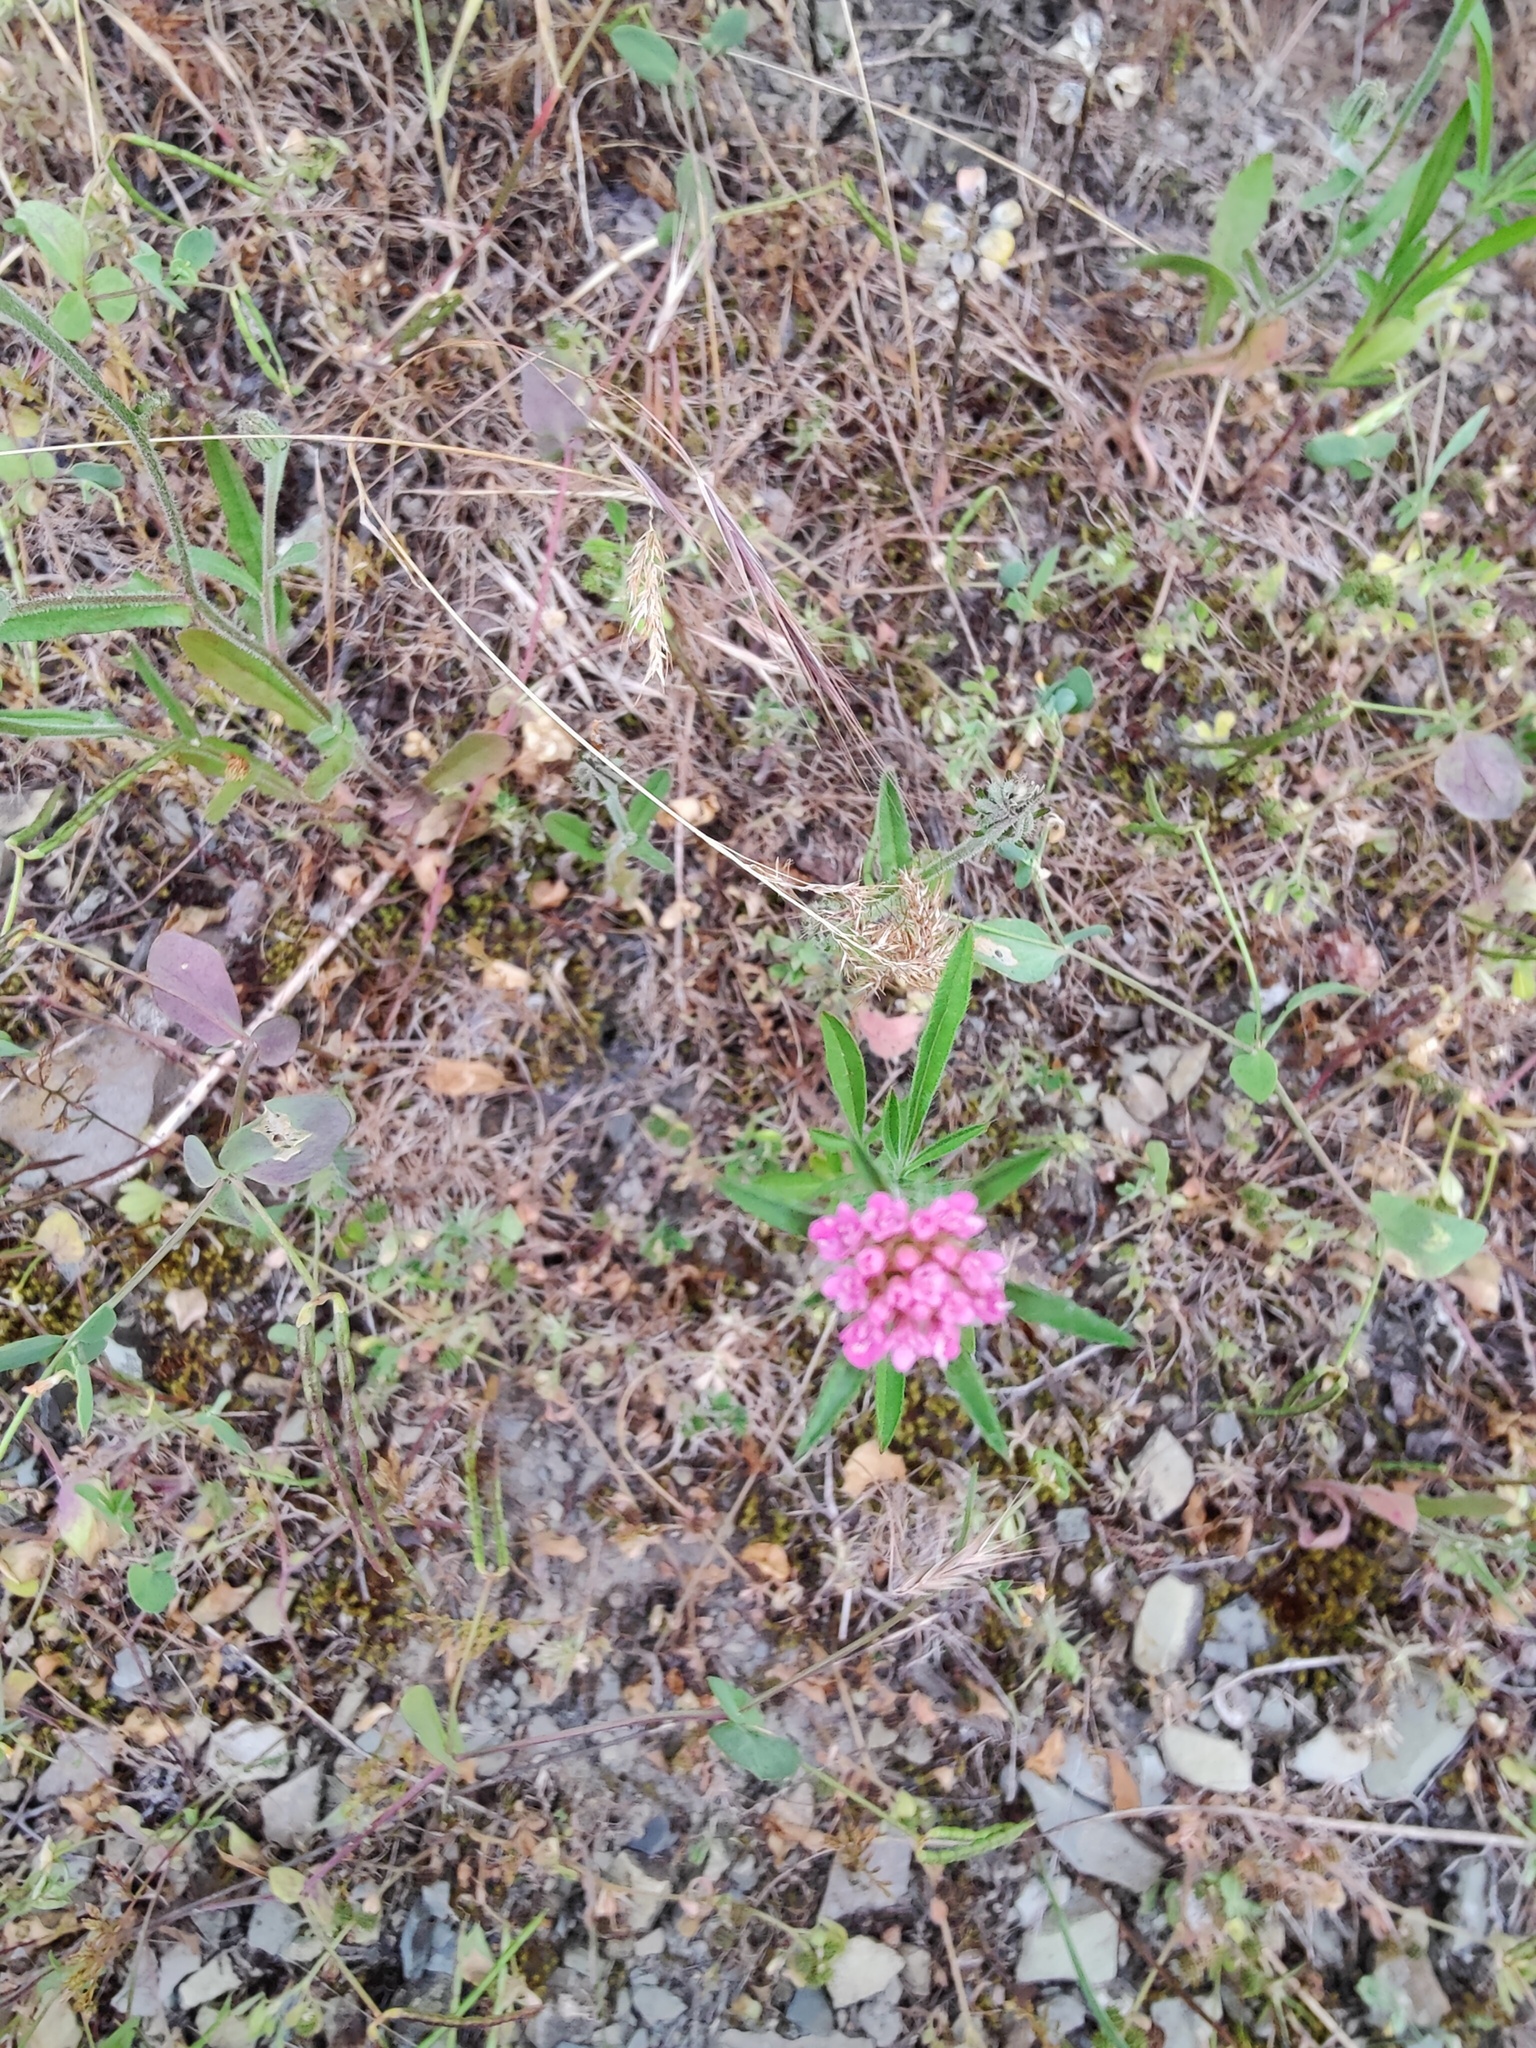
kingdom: Plantae
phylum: Tracheophyta
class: Magnoliopsida
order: Dipsacales
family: Caprifoliaceae
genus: Lomelosia
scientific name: Lomelosia micrantha
